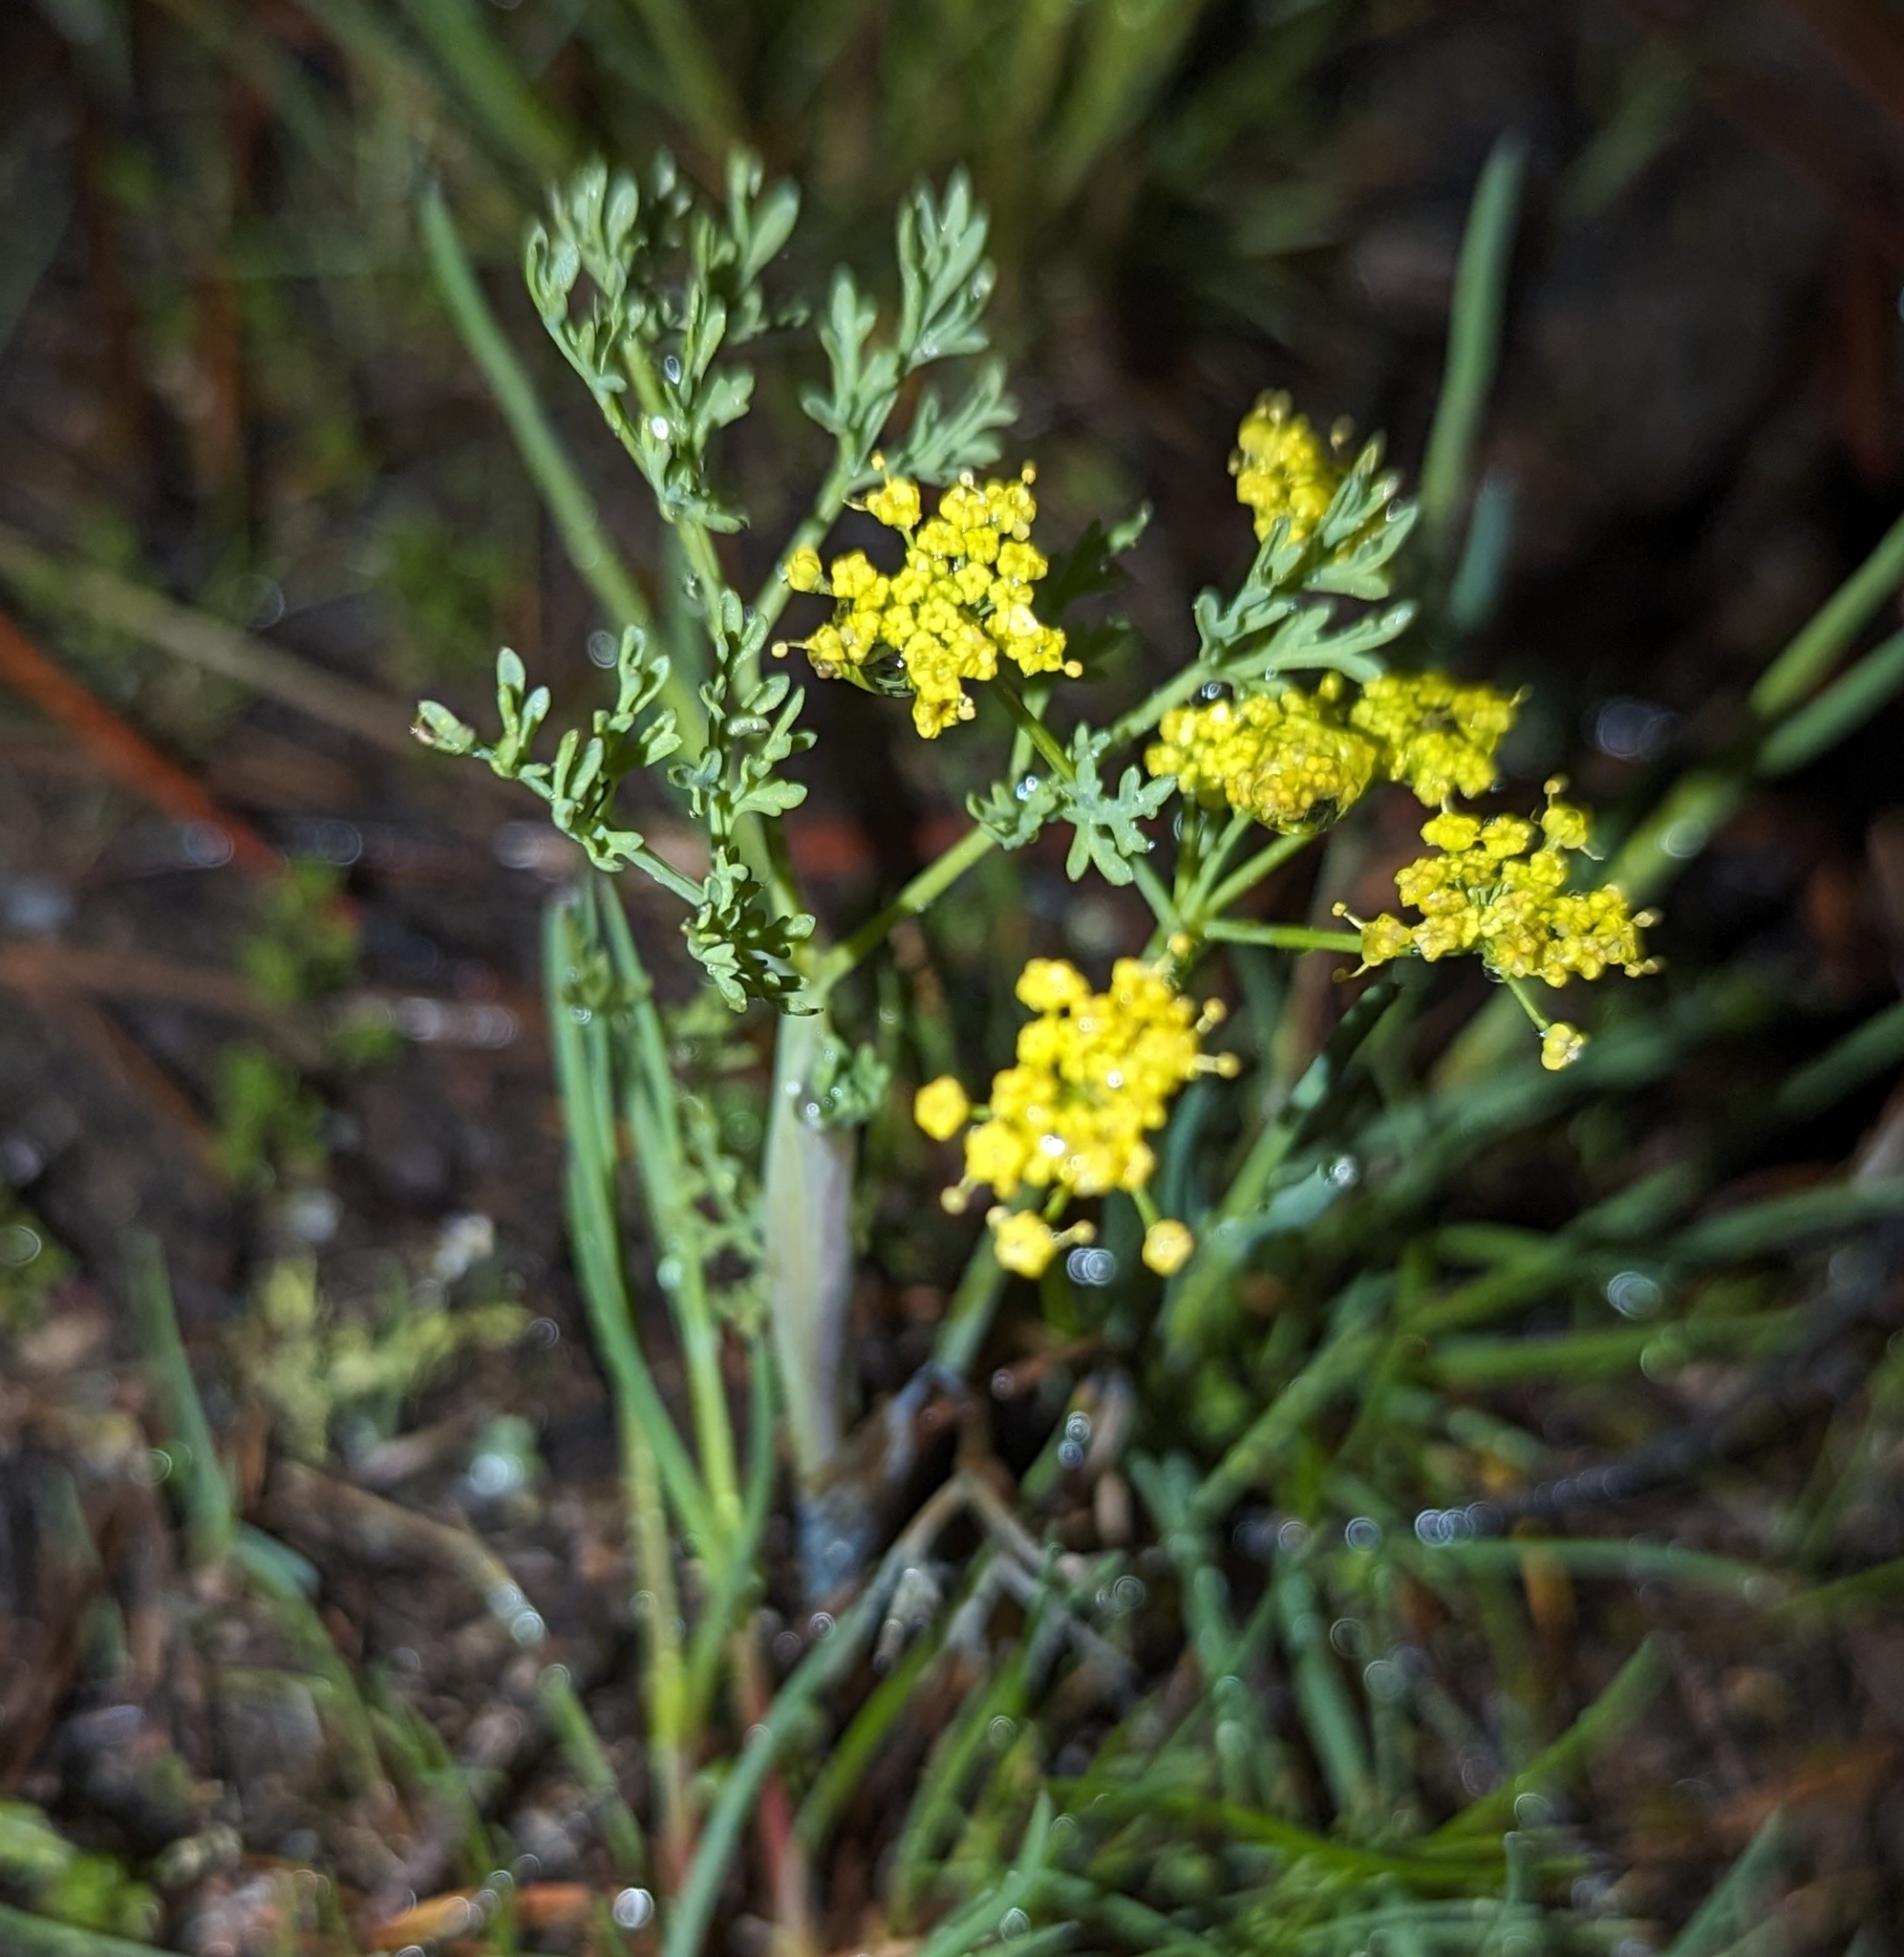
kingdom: Plantae
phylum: Tracheophyta
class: Magnoliopsida
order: Apiales
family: Apiaceae
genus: Lomatium
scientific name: Lomatium ambiguum
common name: Lacy lomatium
